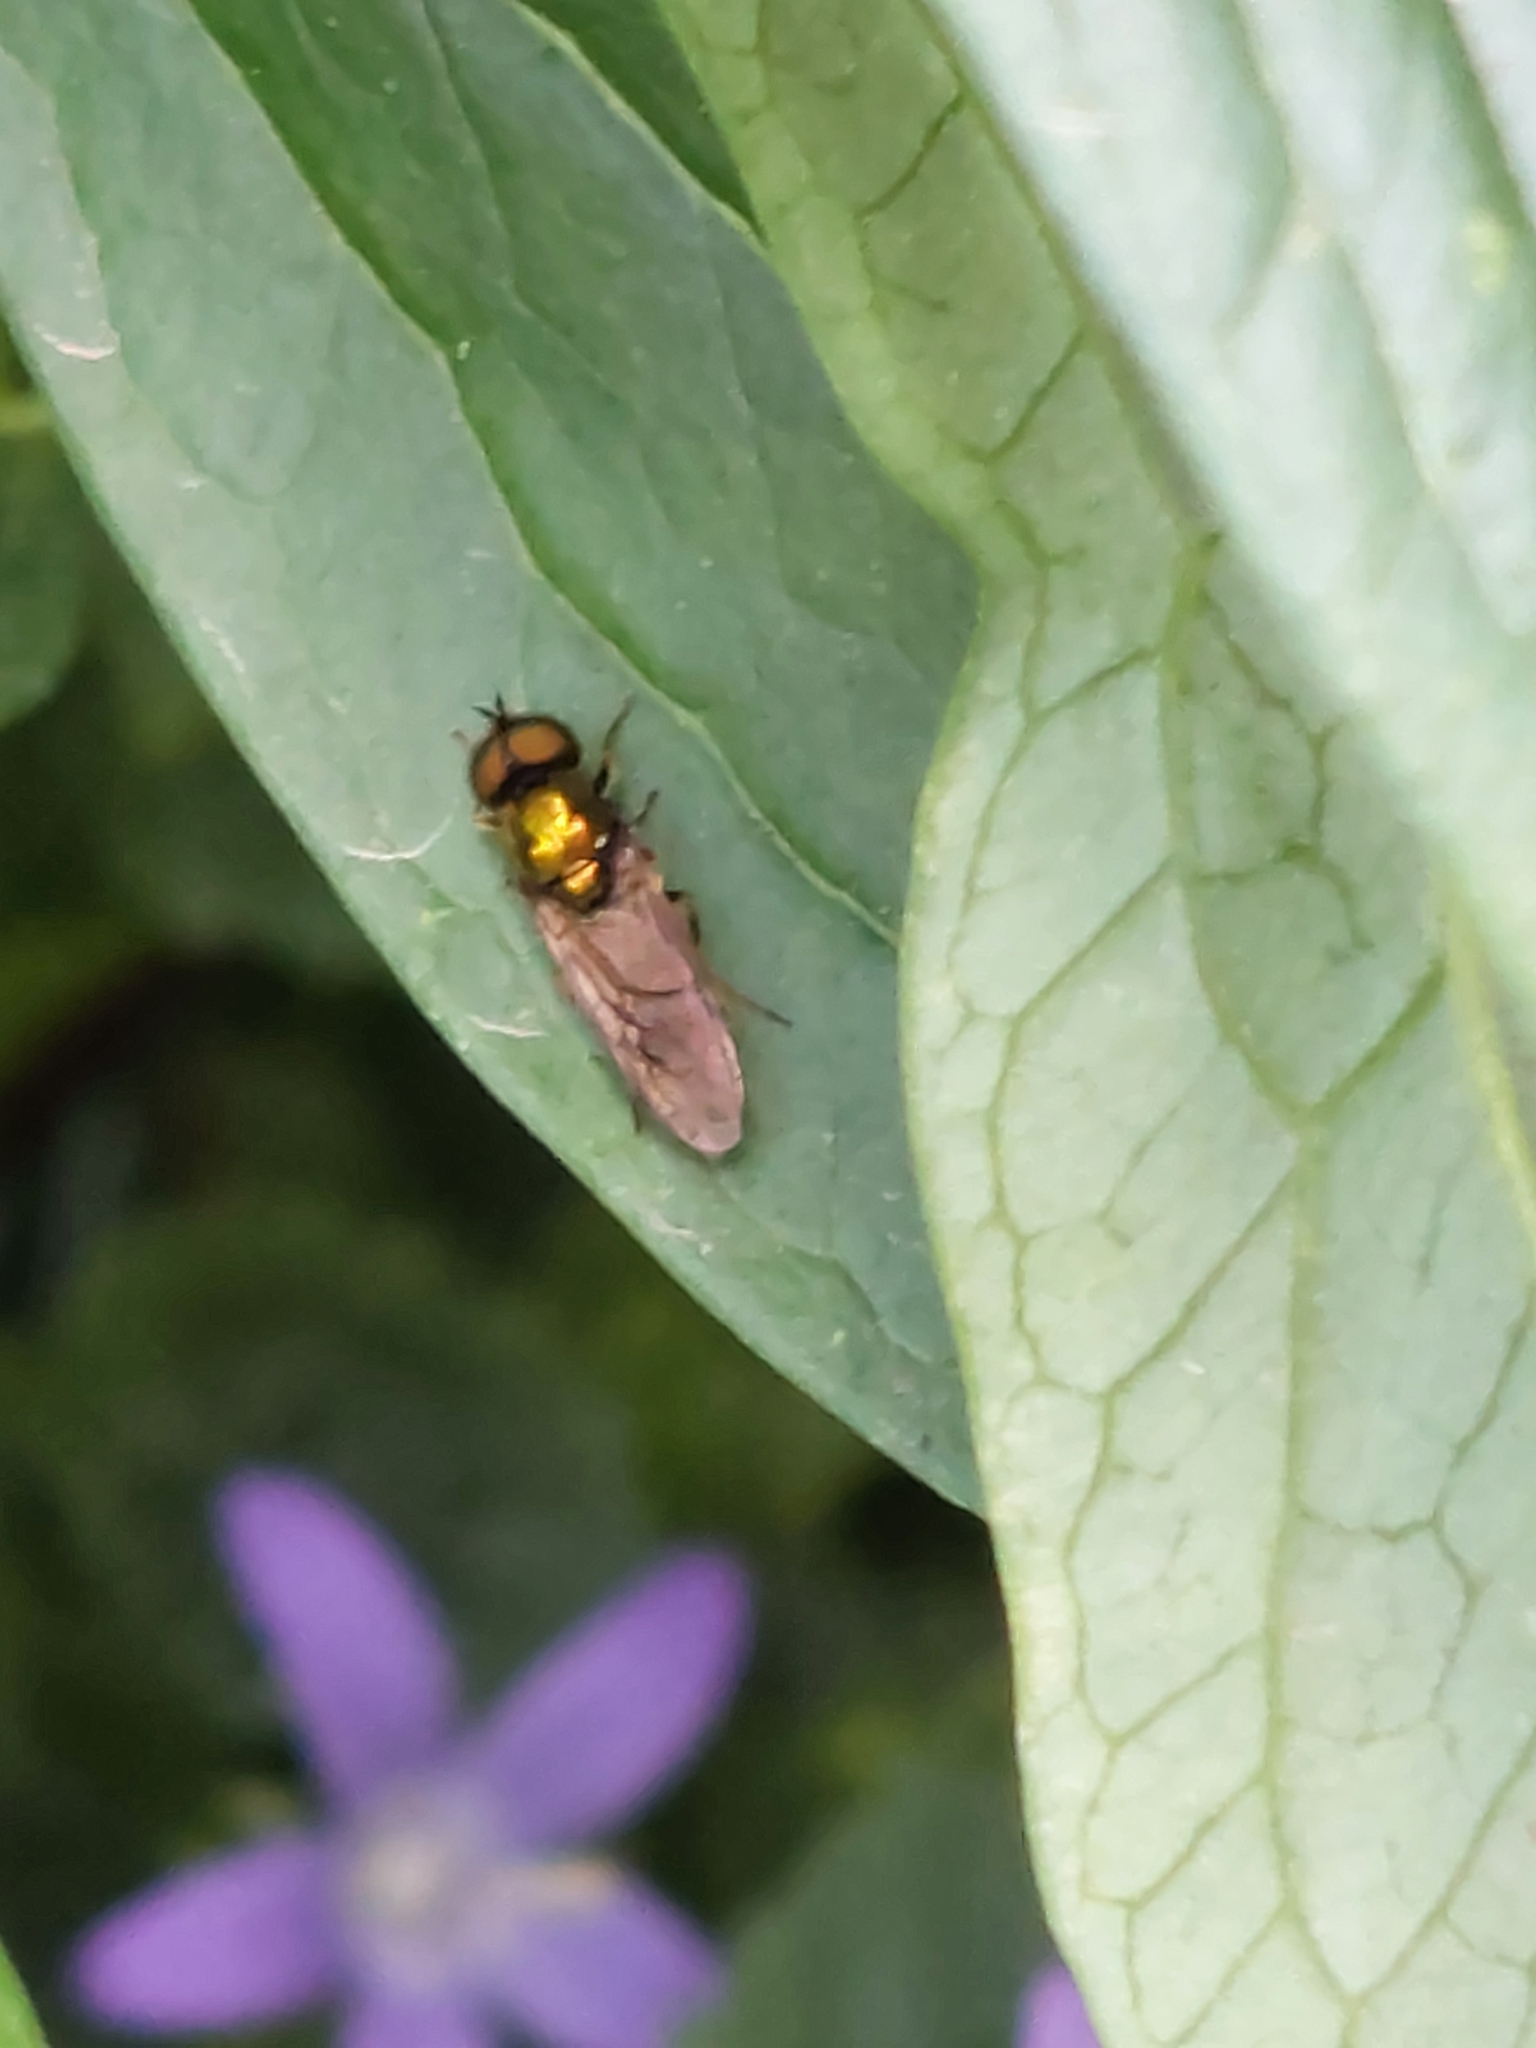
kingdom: Animalia
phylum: Arthropoda
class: Insecta
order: Diptera
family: Stratiomyidae
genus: Chloromyia
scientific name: Chloromyia formosa
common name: Soldier fly
